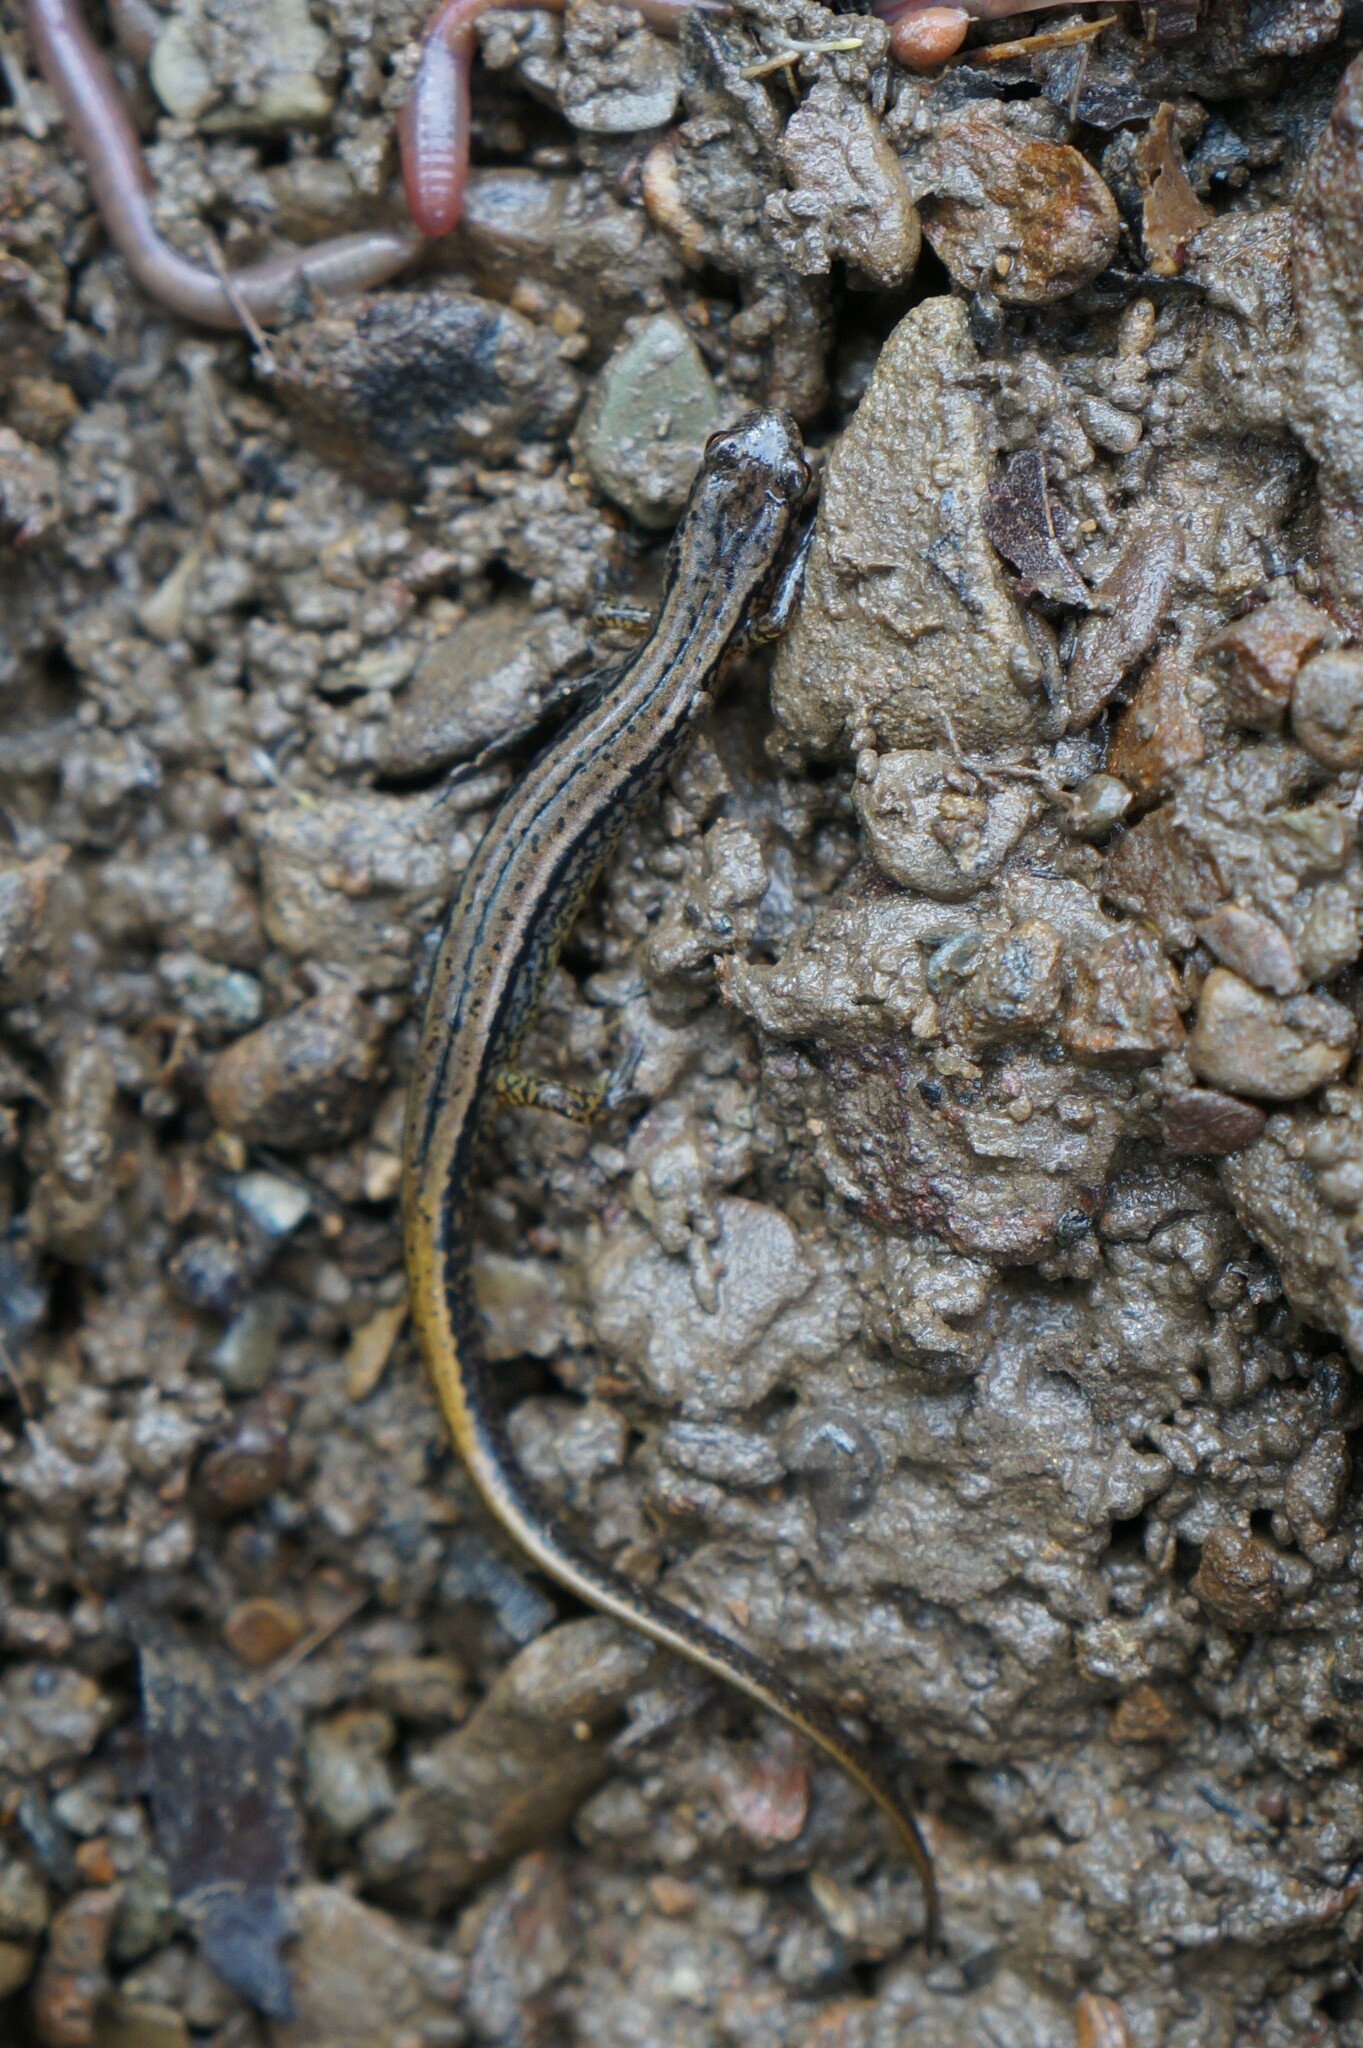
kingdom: Animalia
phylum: Chordata
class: Amphibia
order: Caudata
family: Plethodontidae
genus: Eurycea
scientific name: Eurycea bislineata
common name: Northern two-lined salamander
